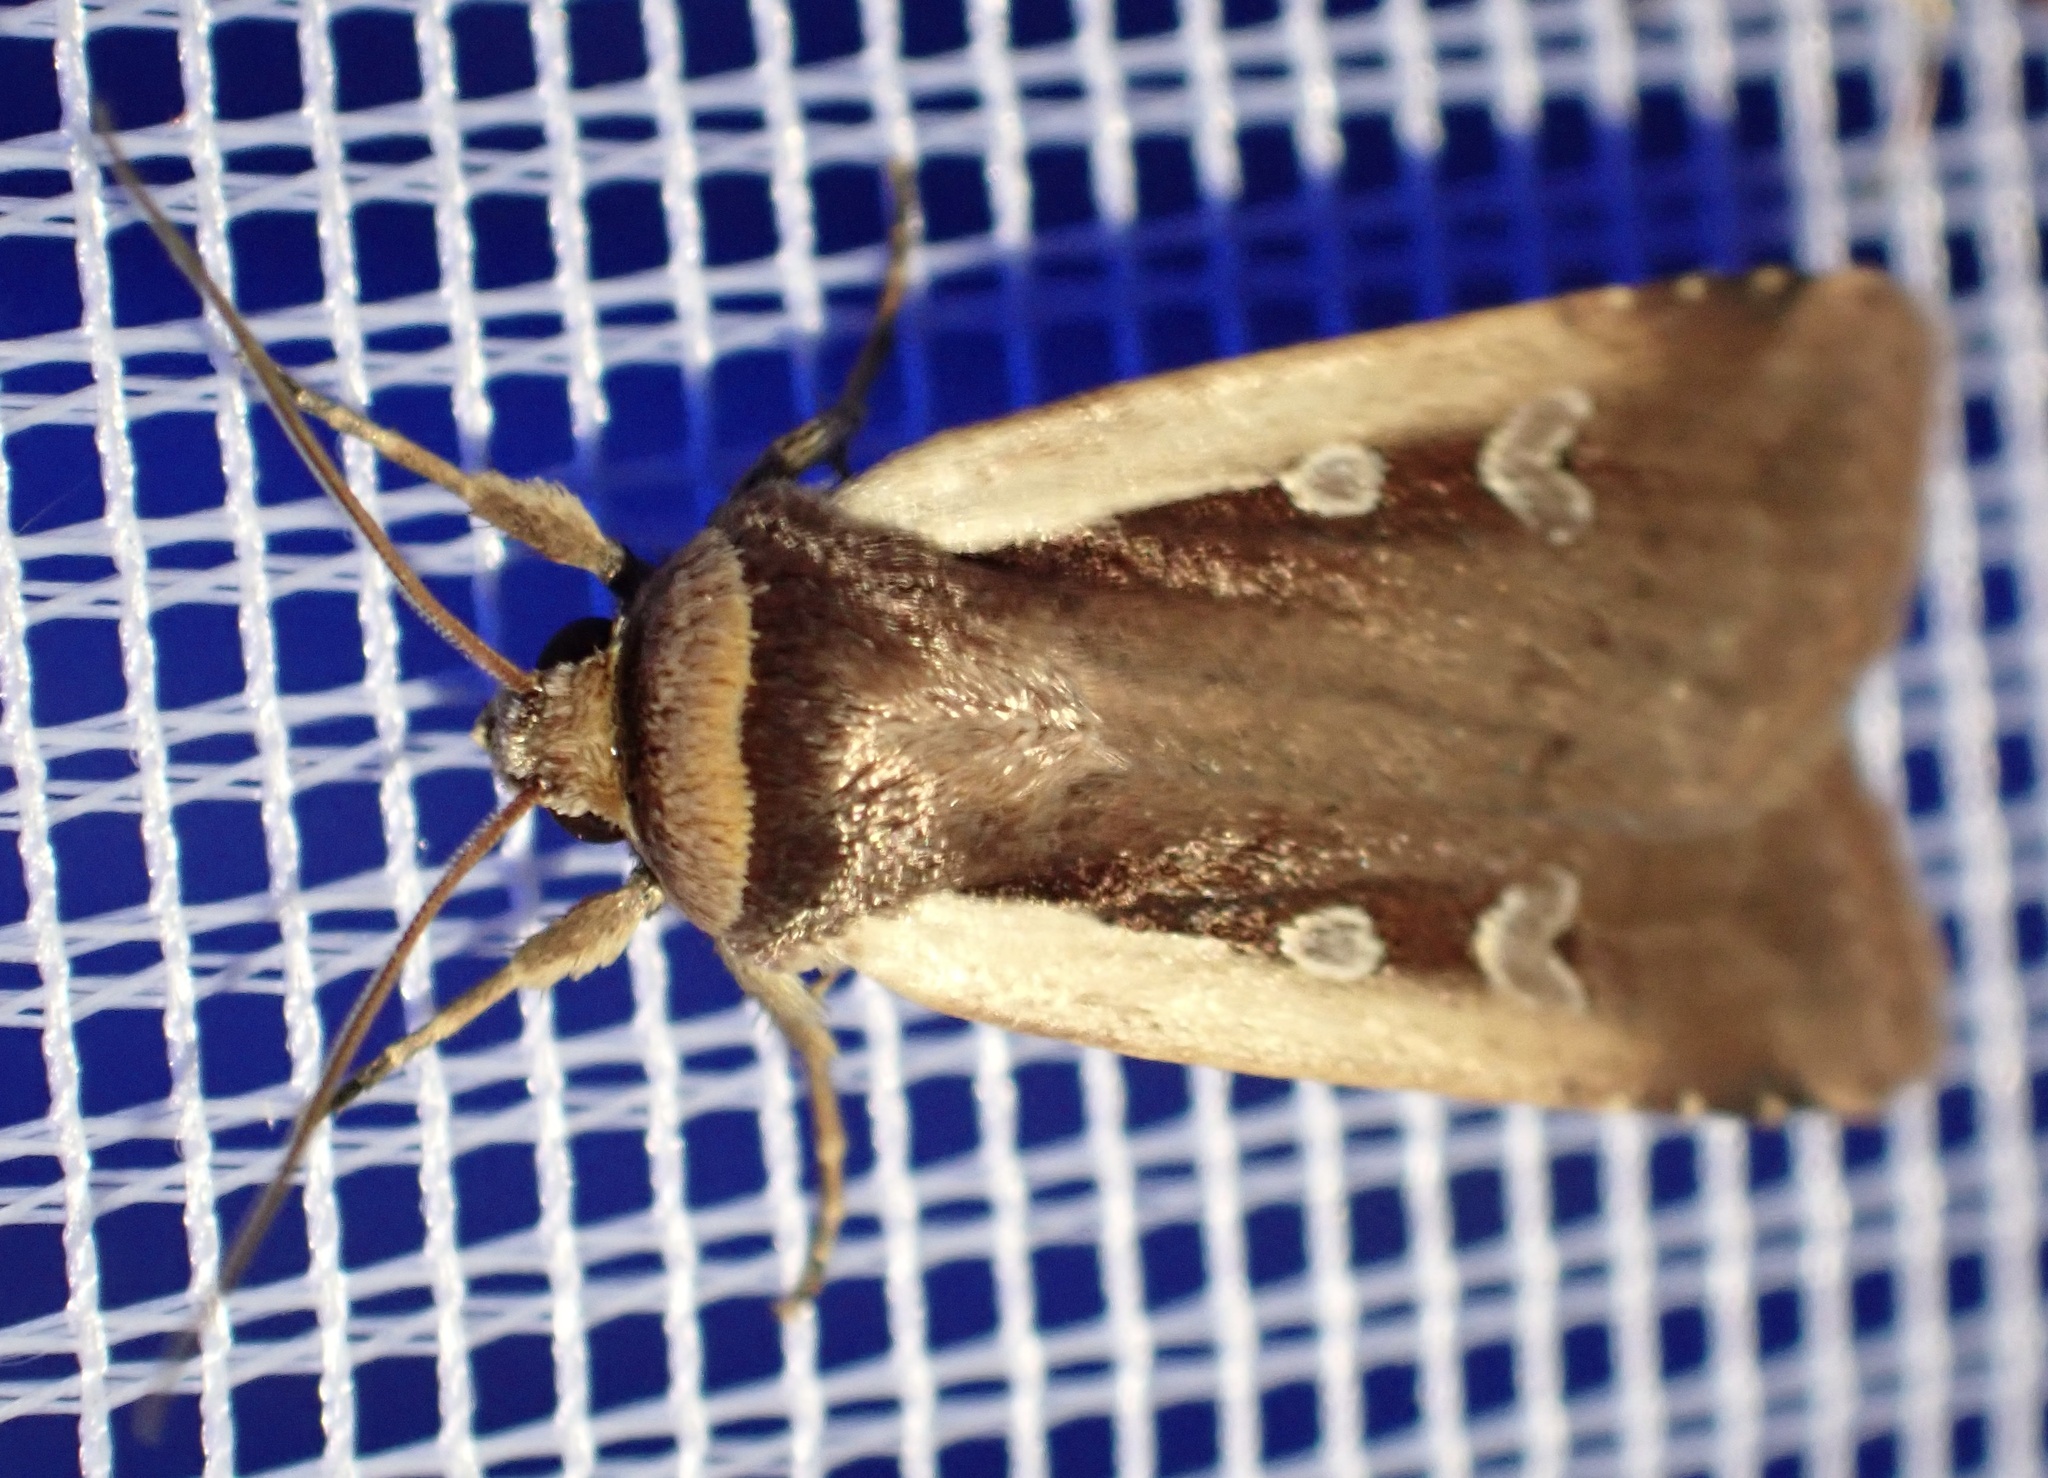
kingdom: Animalia
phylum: Arthropoda
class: Insecta
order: Lepidoptera
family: Noctuidae
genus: Ochropleura
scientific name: Ochropleura plecta
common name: Flame shoulder
